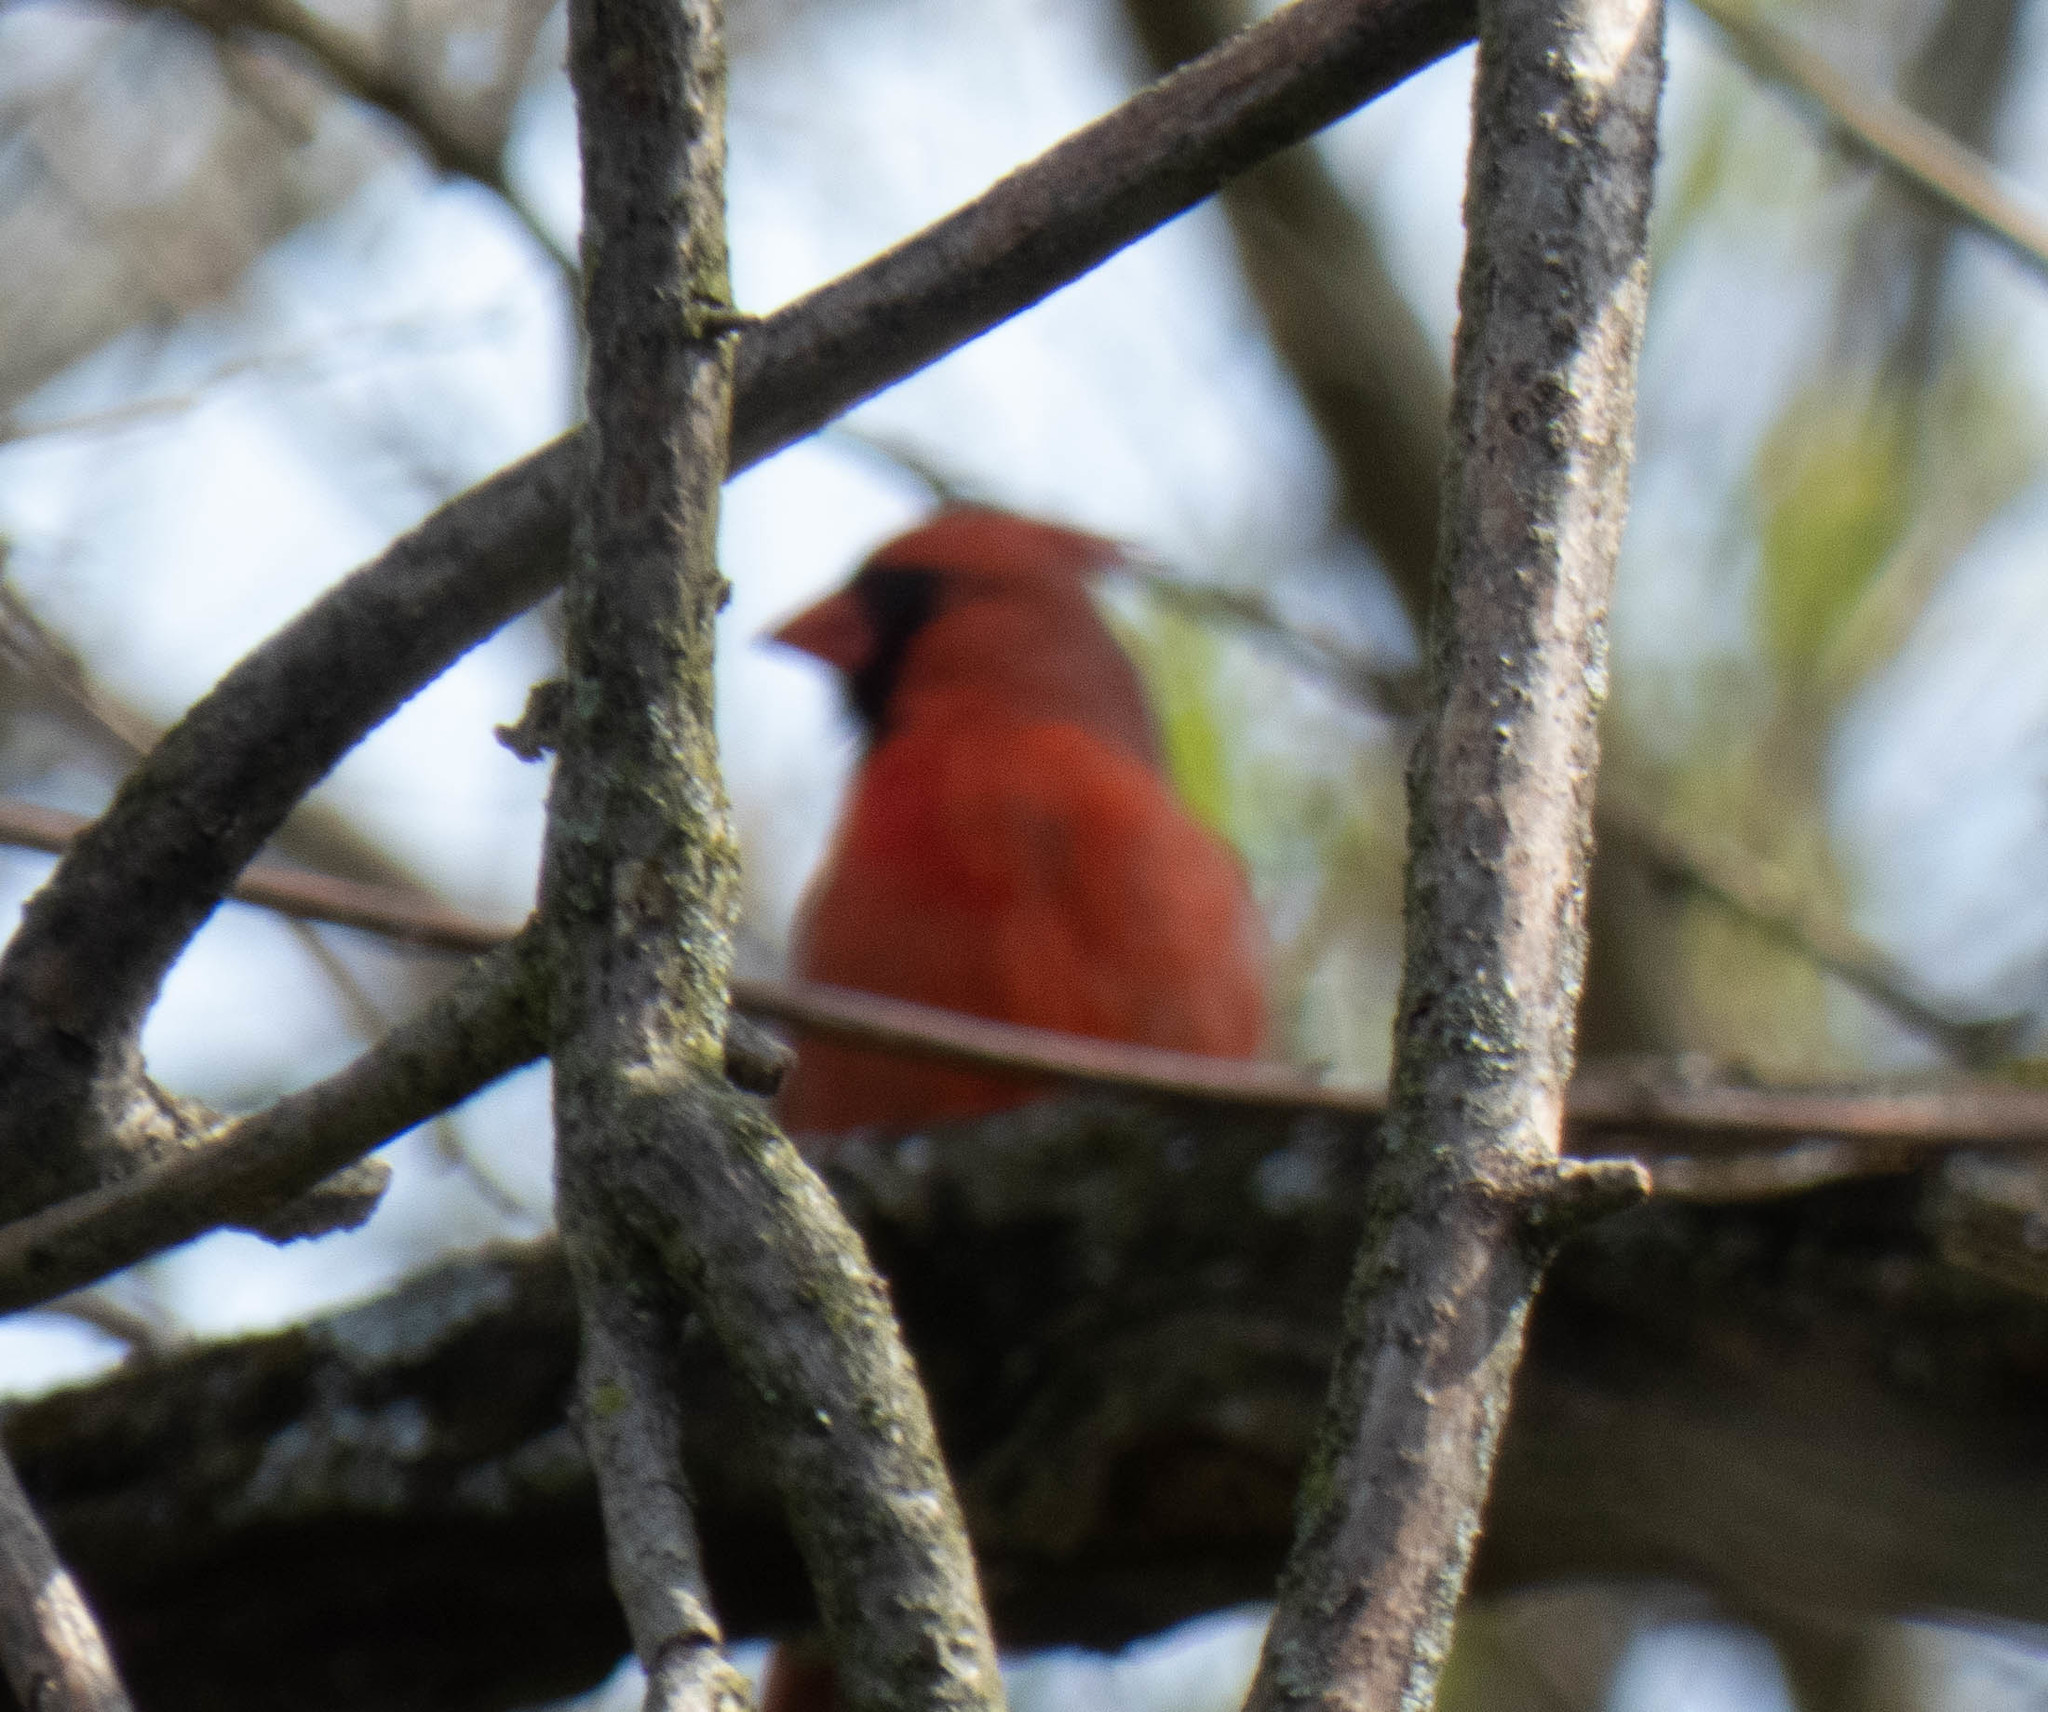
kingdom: Animalia
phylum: Chordata
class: Aves
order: Passeriformes
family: Cardinalidae
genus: Cardinalis
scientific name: Cardinalis cardinalis
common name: Northern cardinal
